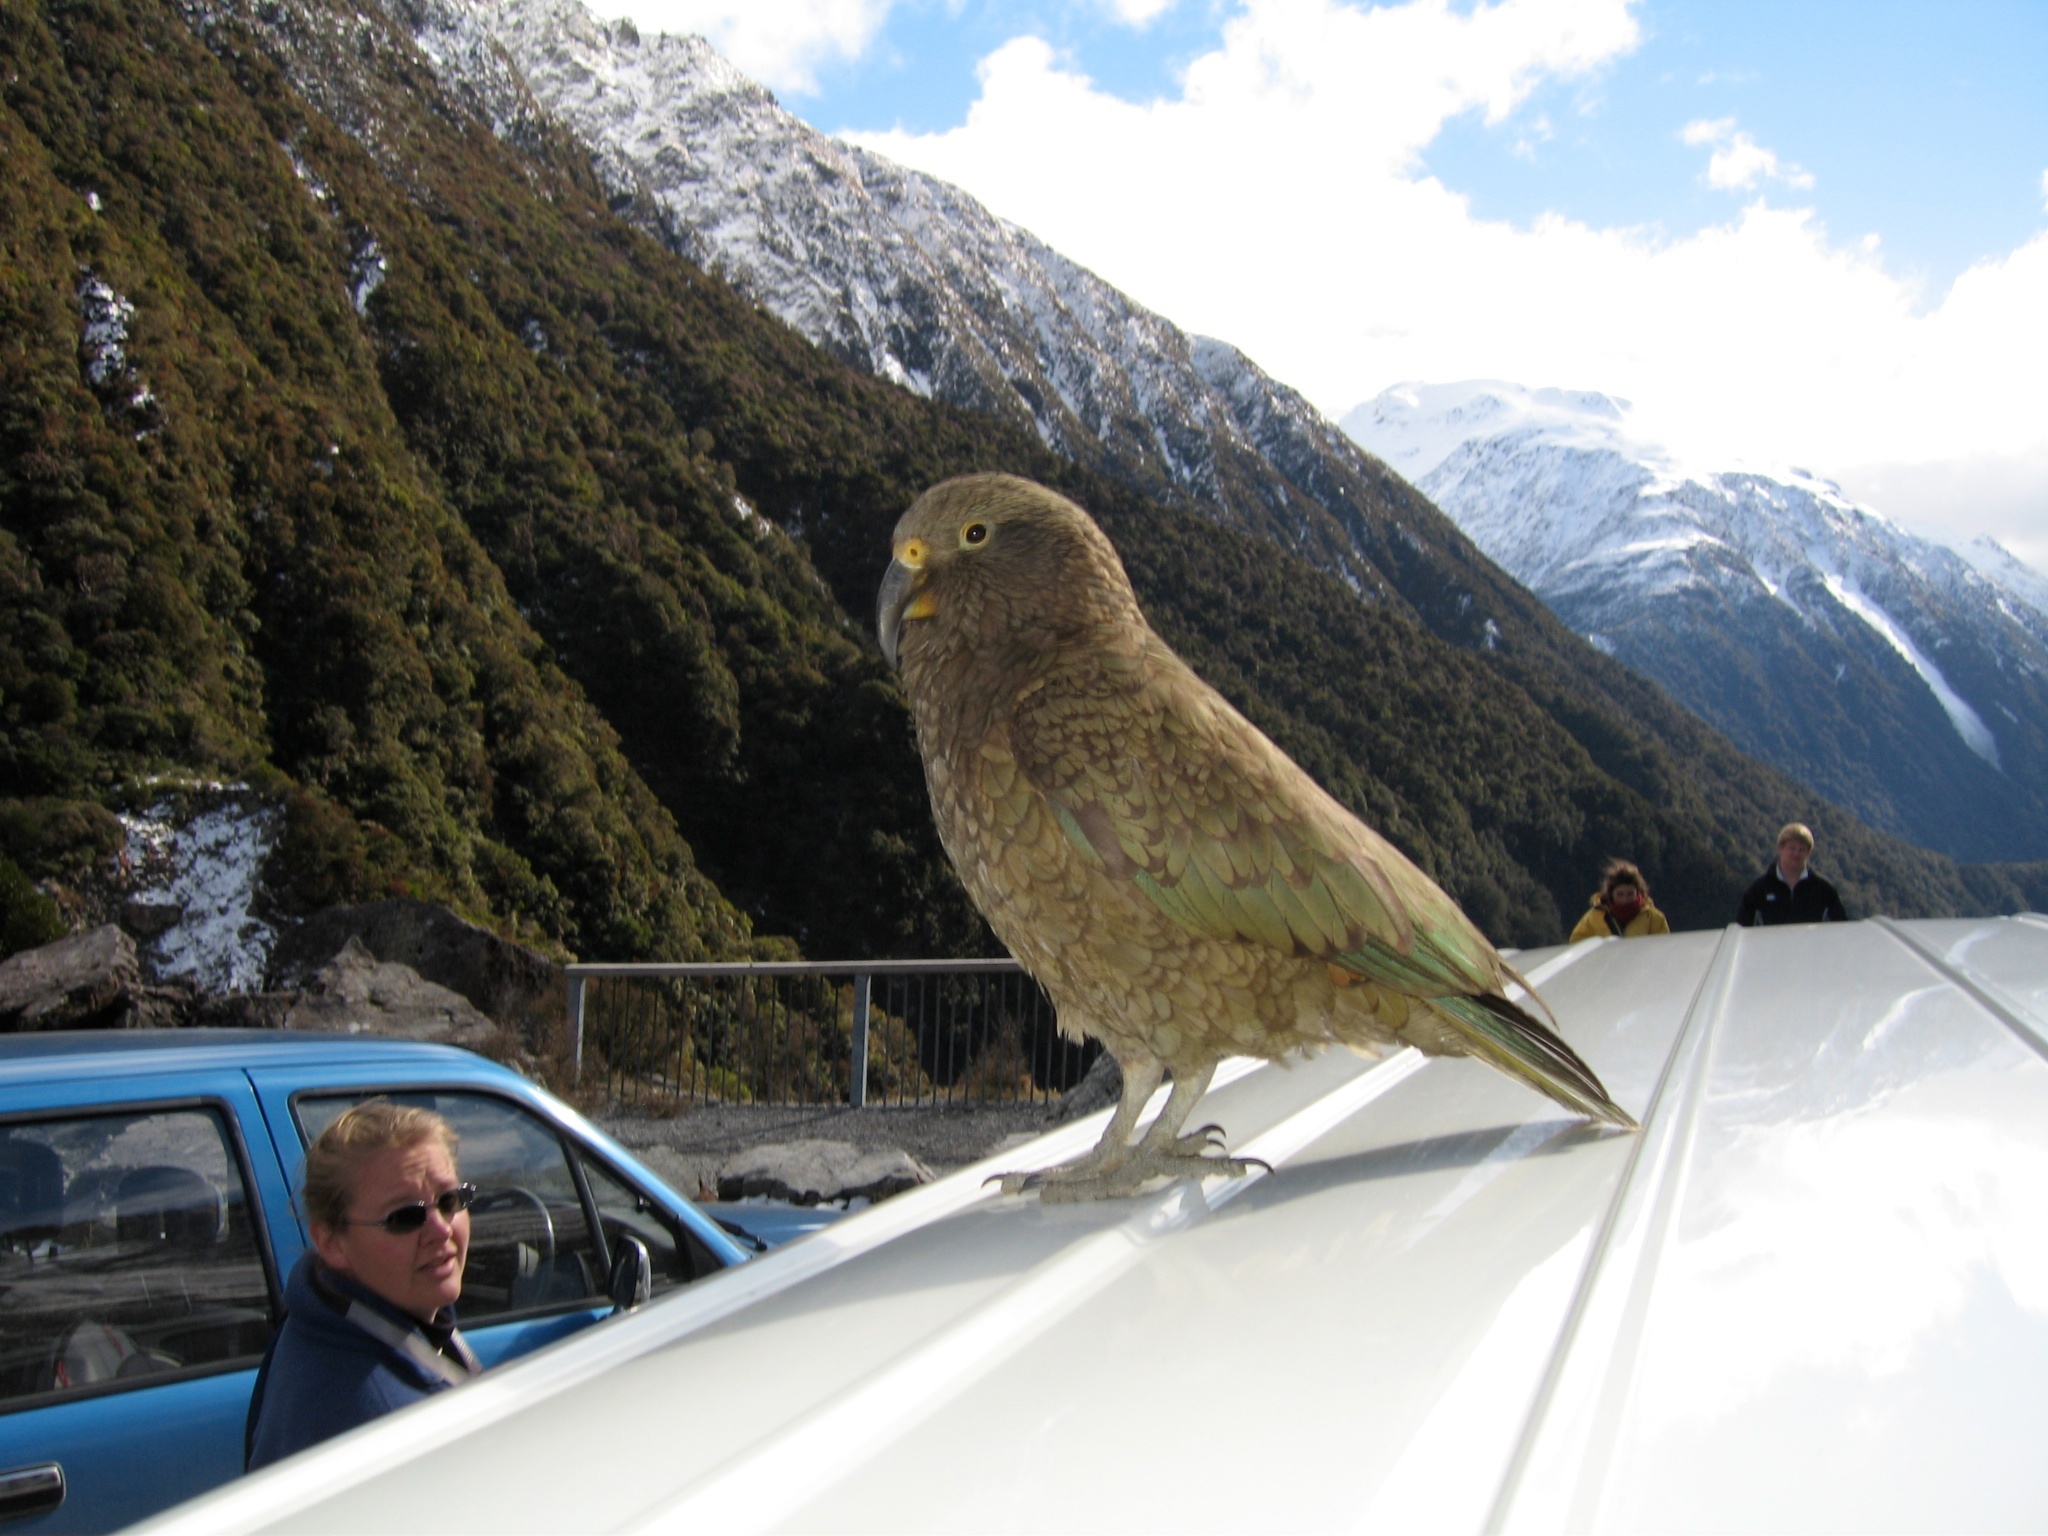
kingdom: Animalia
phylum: Chordata
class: Aves
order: Psittaciformes
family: Psittacidae
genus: Nestor
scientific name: Nestor notabilis
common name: Kea
